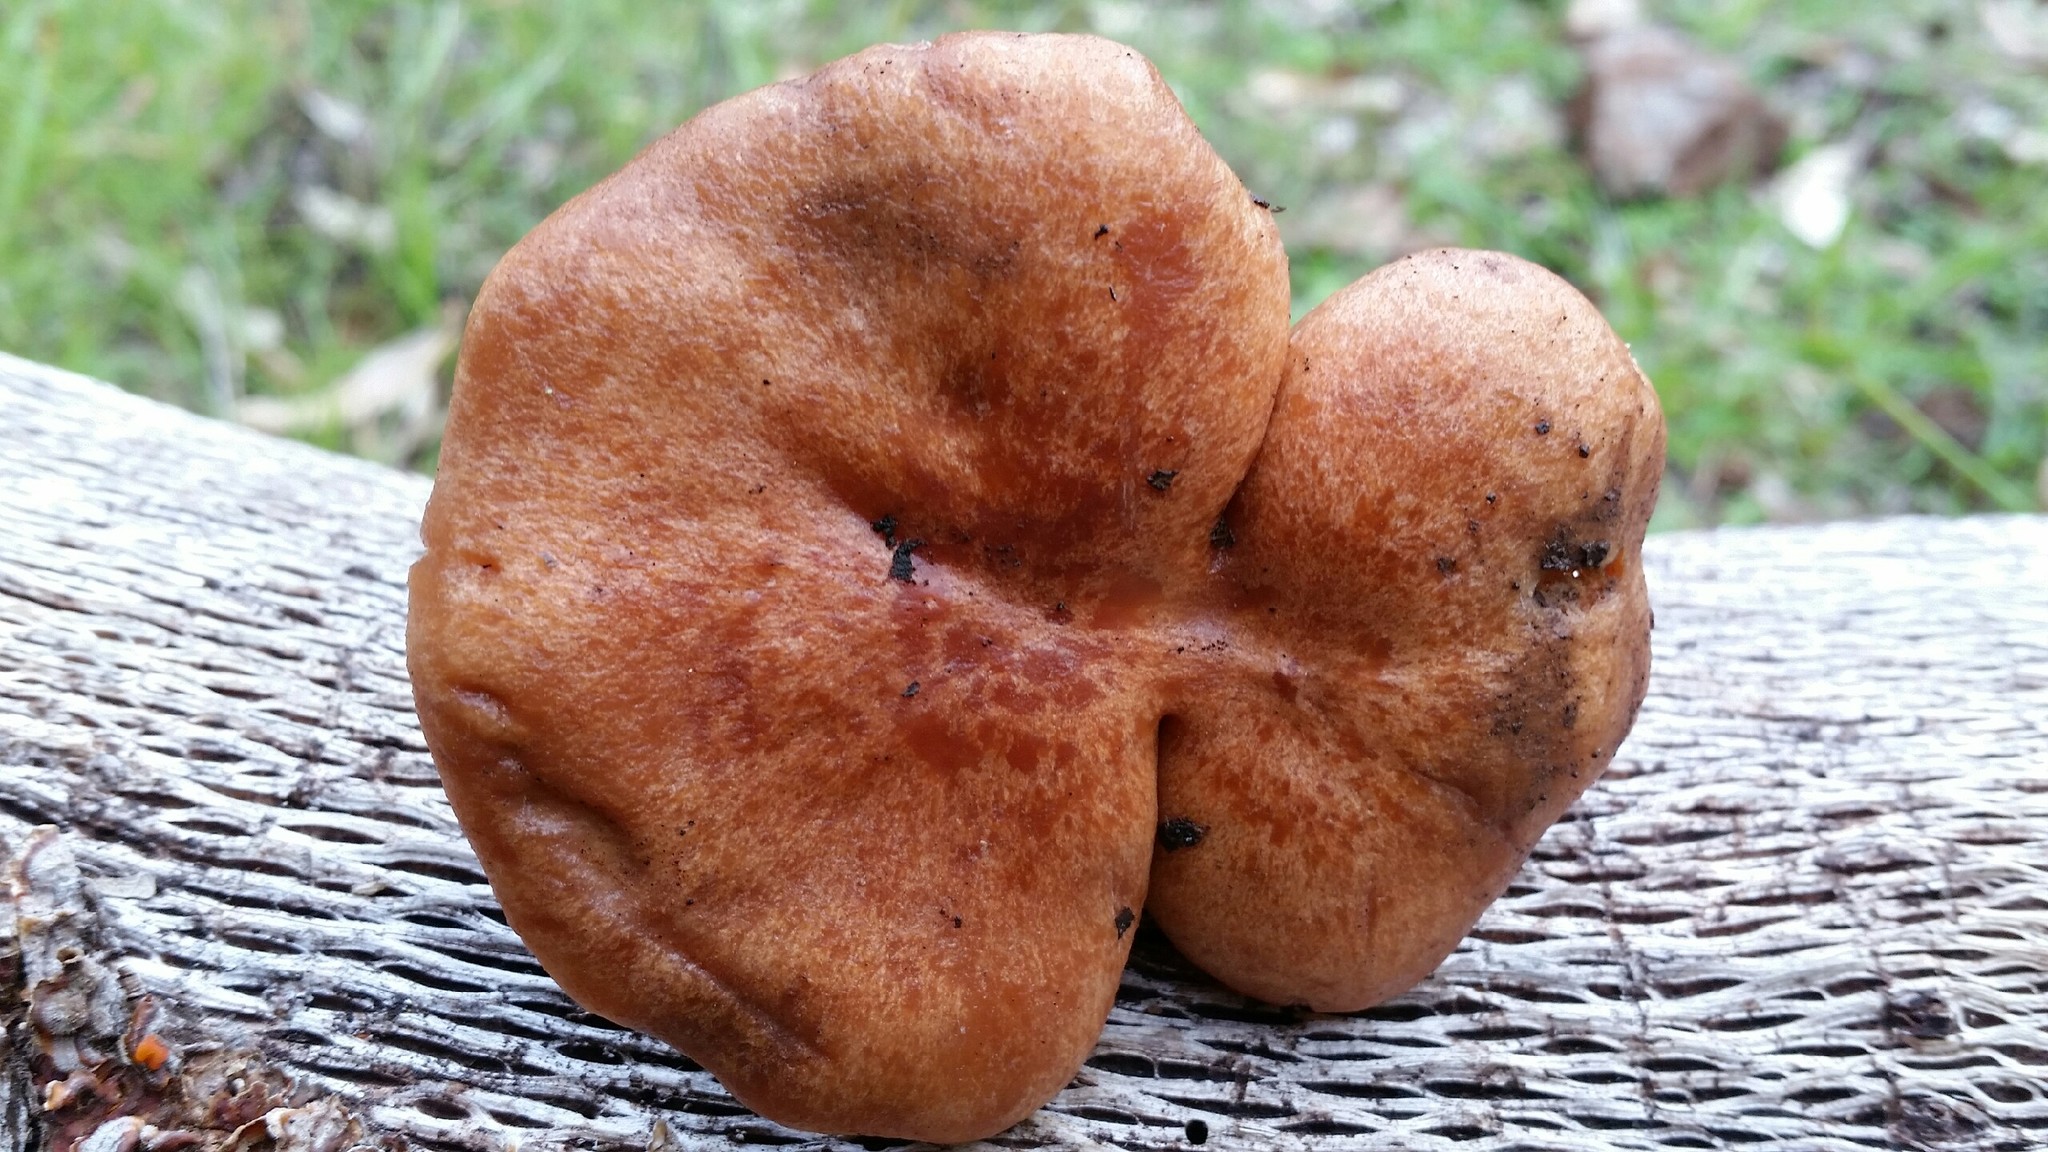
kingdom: Fungi
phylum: Basidiomycota
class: Agaricomycetes
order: Russulales
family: Russulaceae
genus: Lactarius
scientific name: Lactarius xanthogalactus
